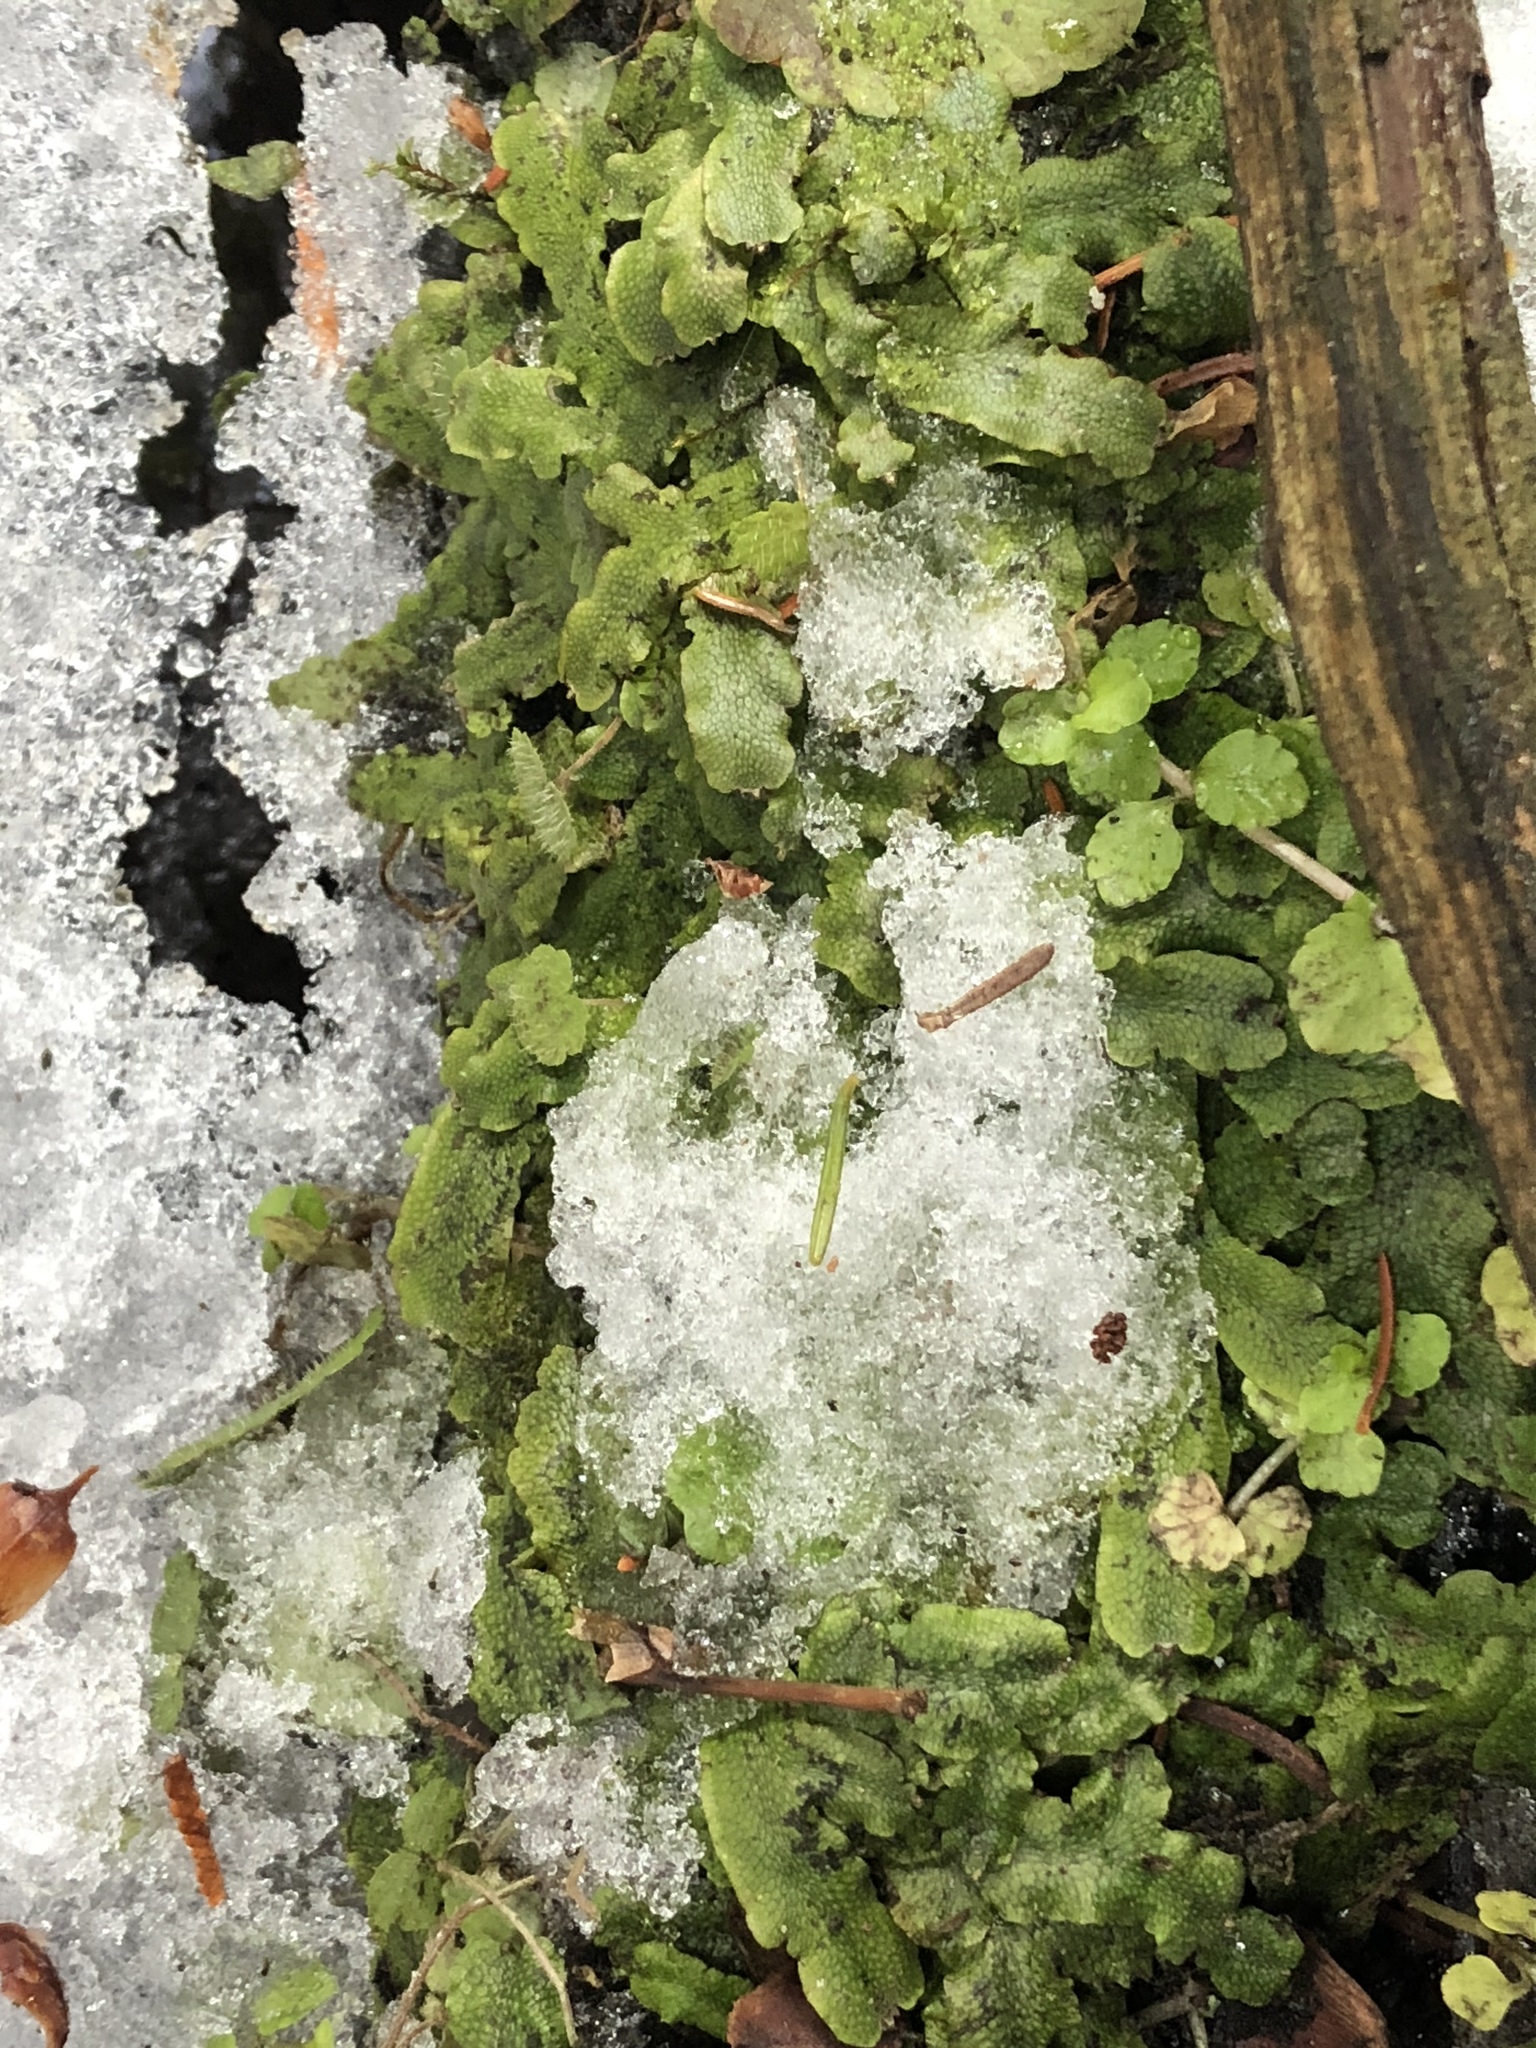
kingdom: Plantae
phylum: Marchantiophyta
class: Marchantiopsida
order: Marchantiales
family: Conocephalaceae
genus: Conocephalum
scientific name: Conocephalum salebrosum
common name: Cat-tongue liverwort
